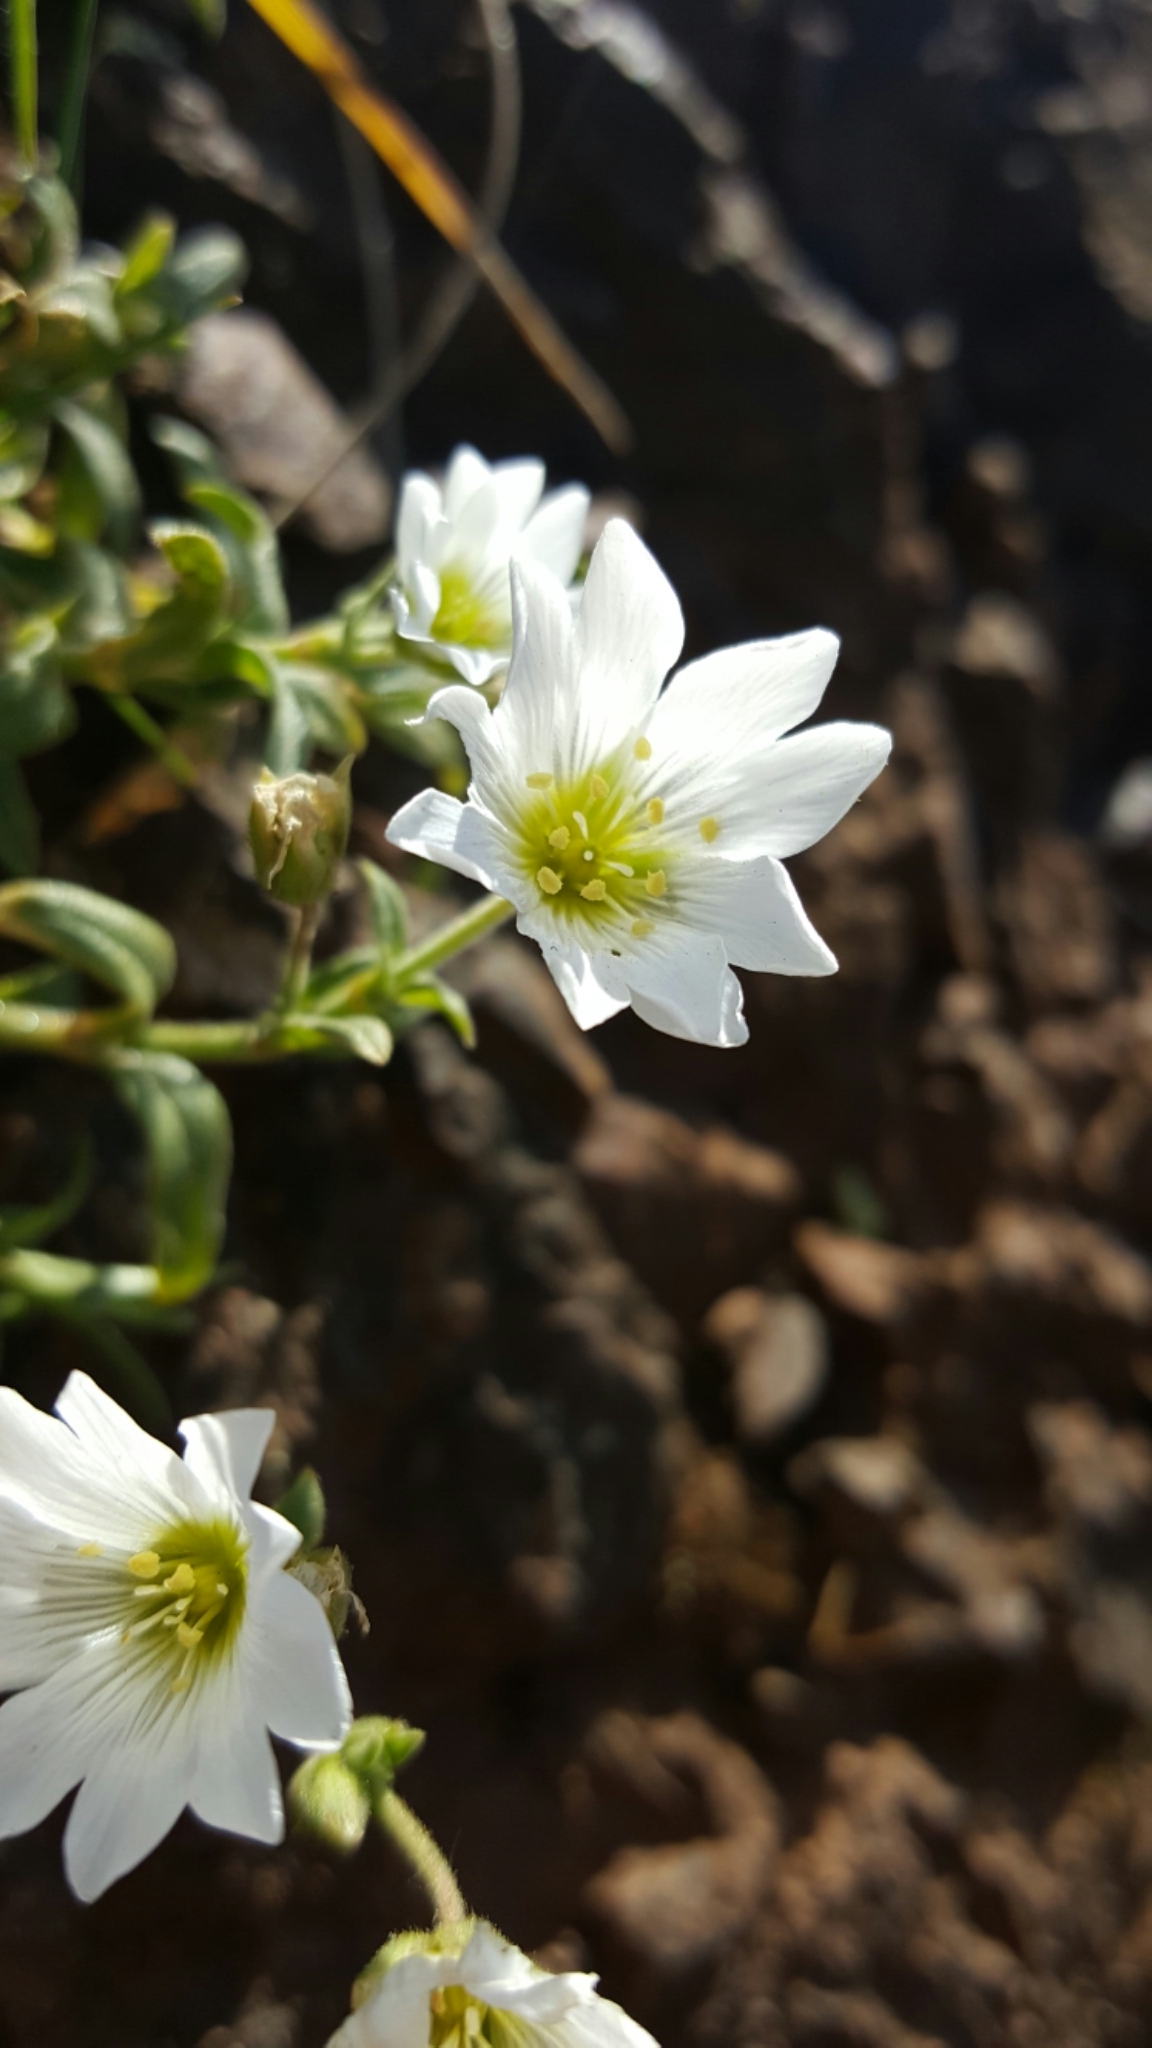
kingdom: Plantae
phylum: Tracheophyta
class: Magnoliopsida
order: Caryophyllales
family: Caryophyllaceae
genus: Cerastium
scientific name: Cerastium arvense
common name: Field mouse-ear
